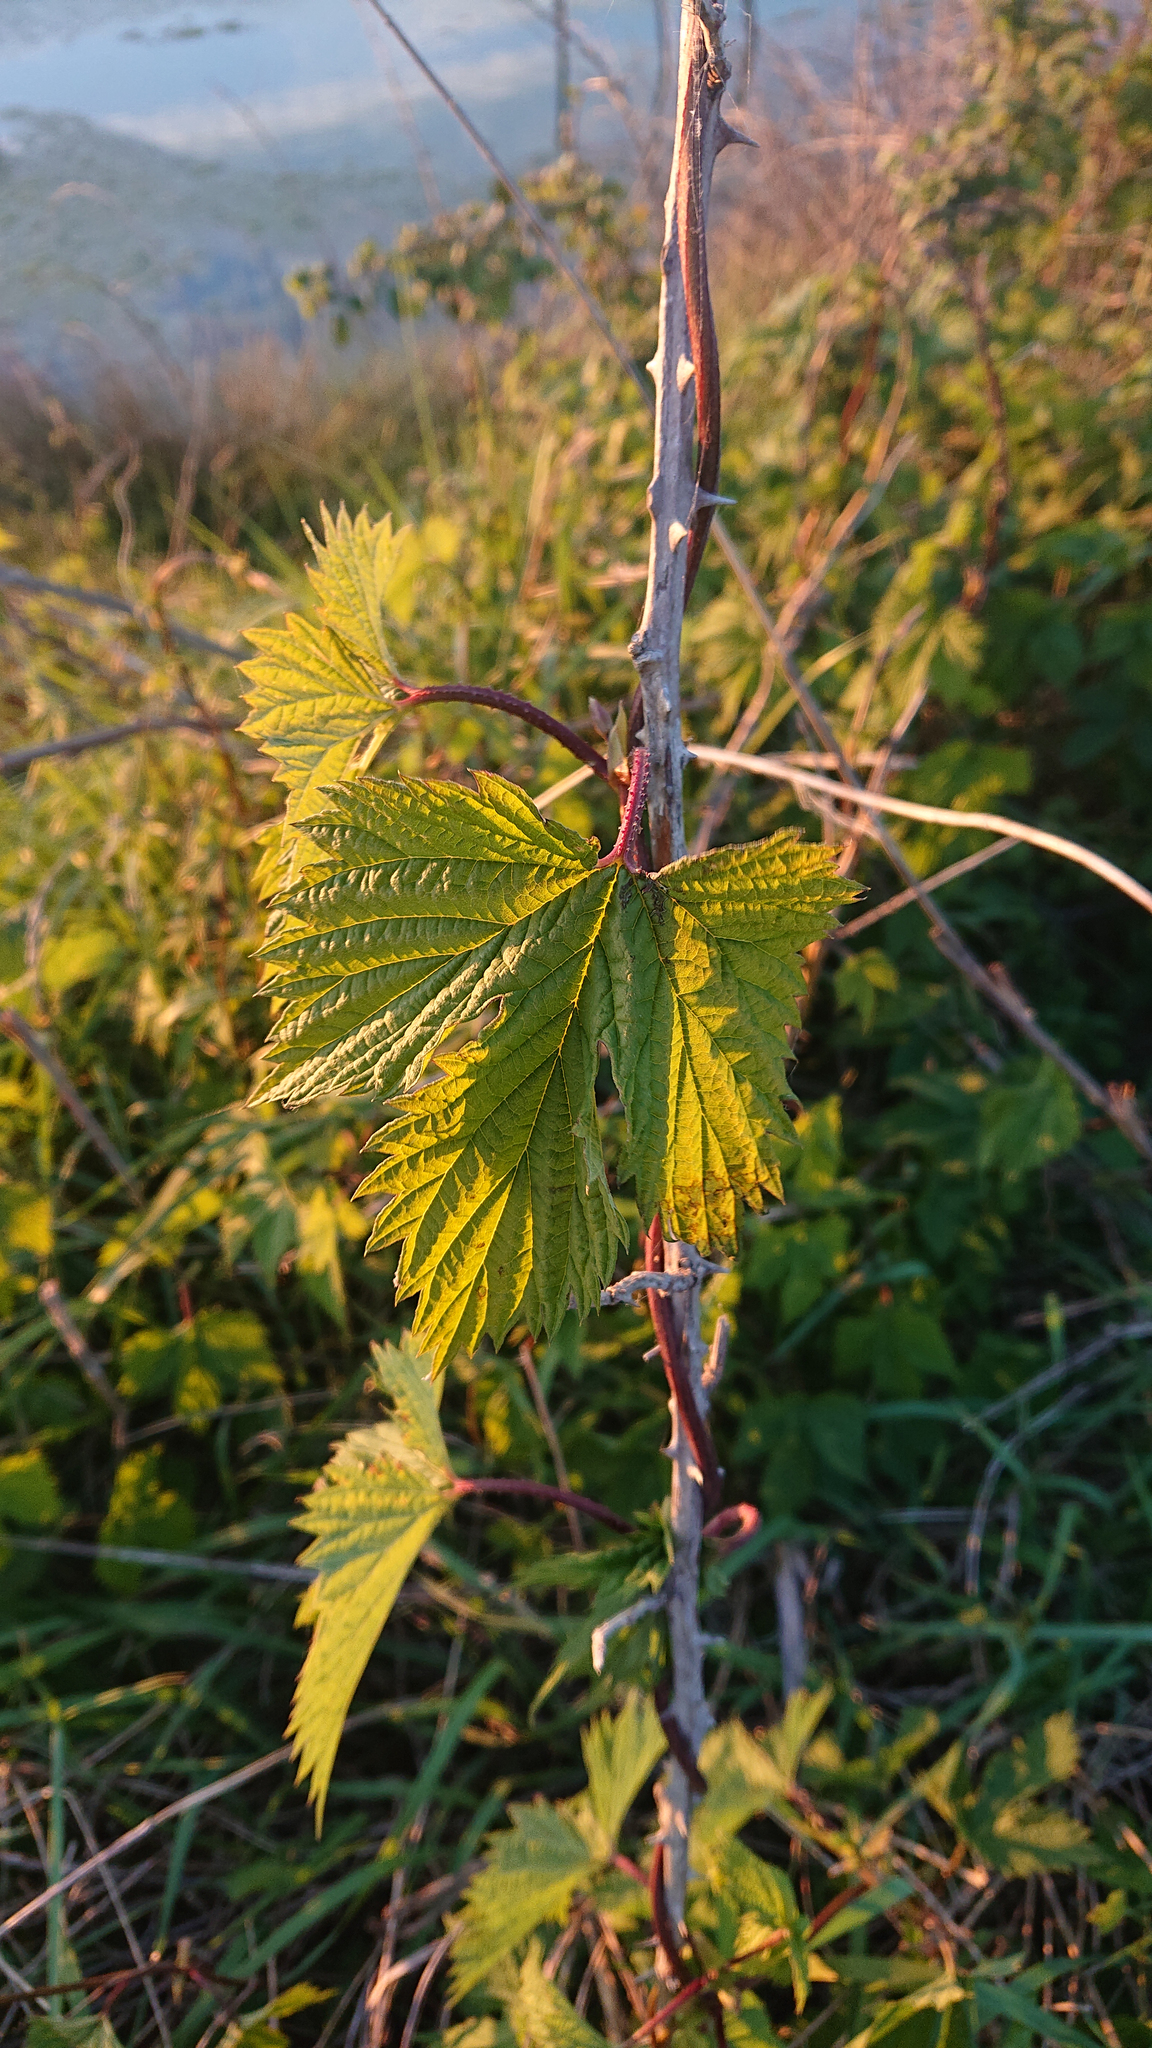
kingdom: Plantae
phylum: Tracheophyta
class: Magnoliopsida
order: Rosales
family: Cannabaceae
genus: Humulus
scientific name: Humulus lupulus
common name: Hop
